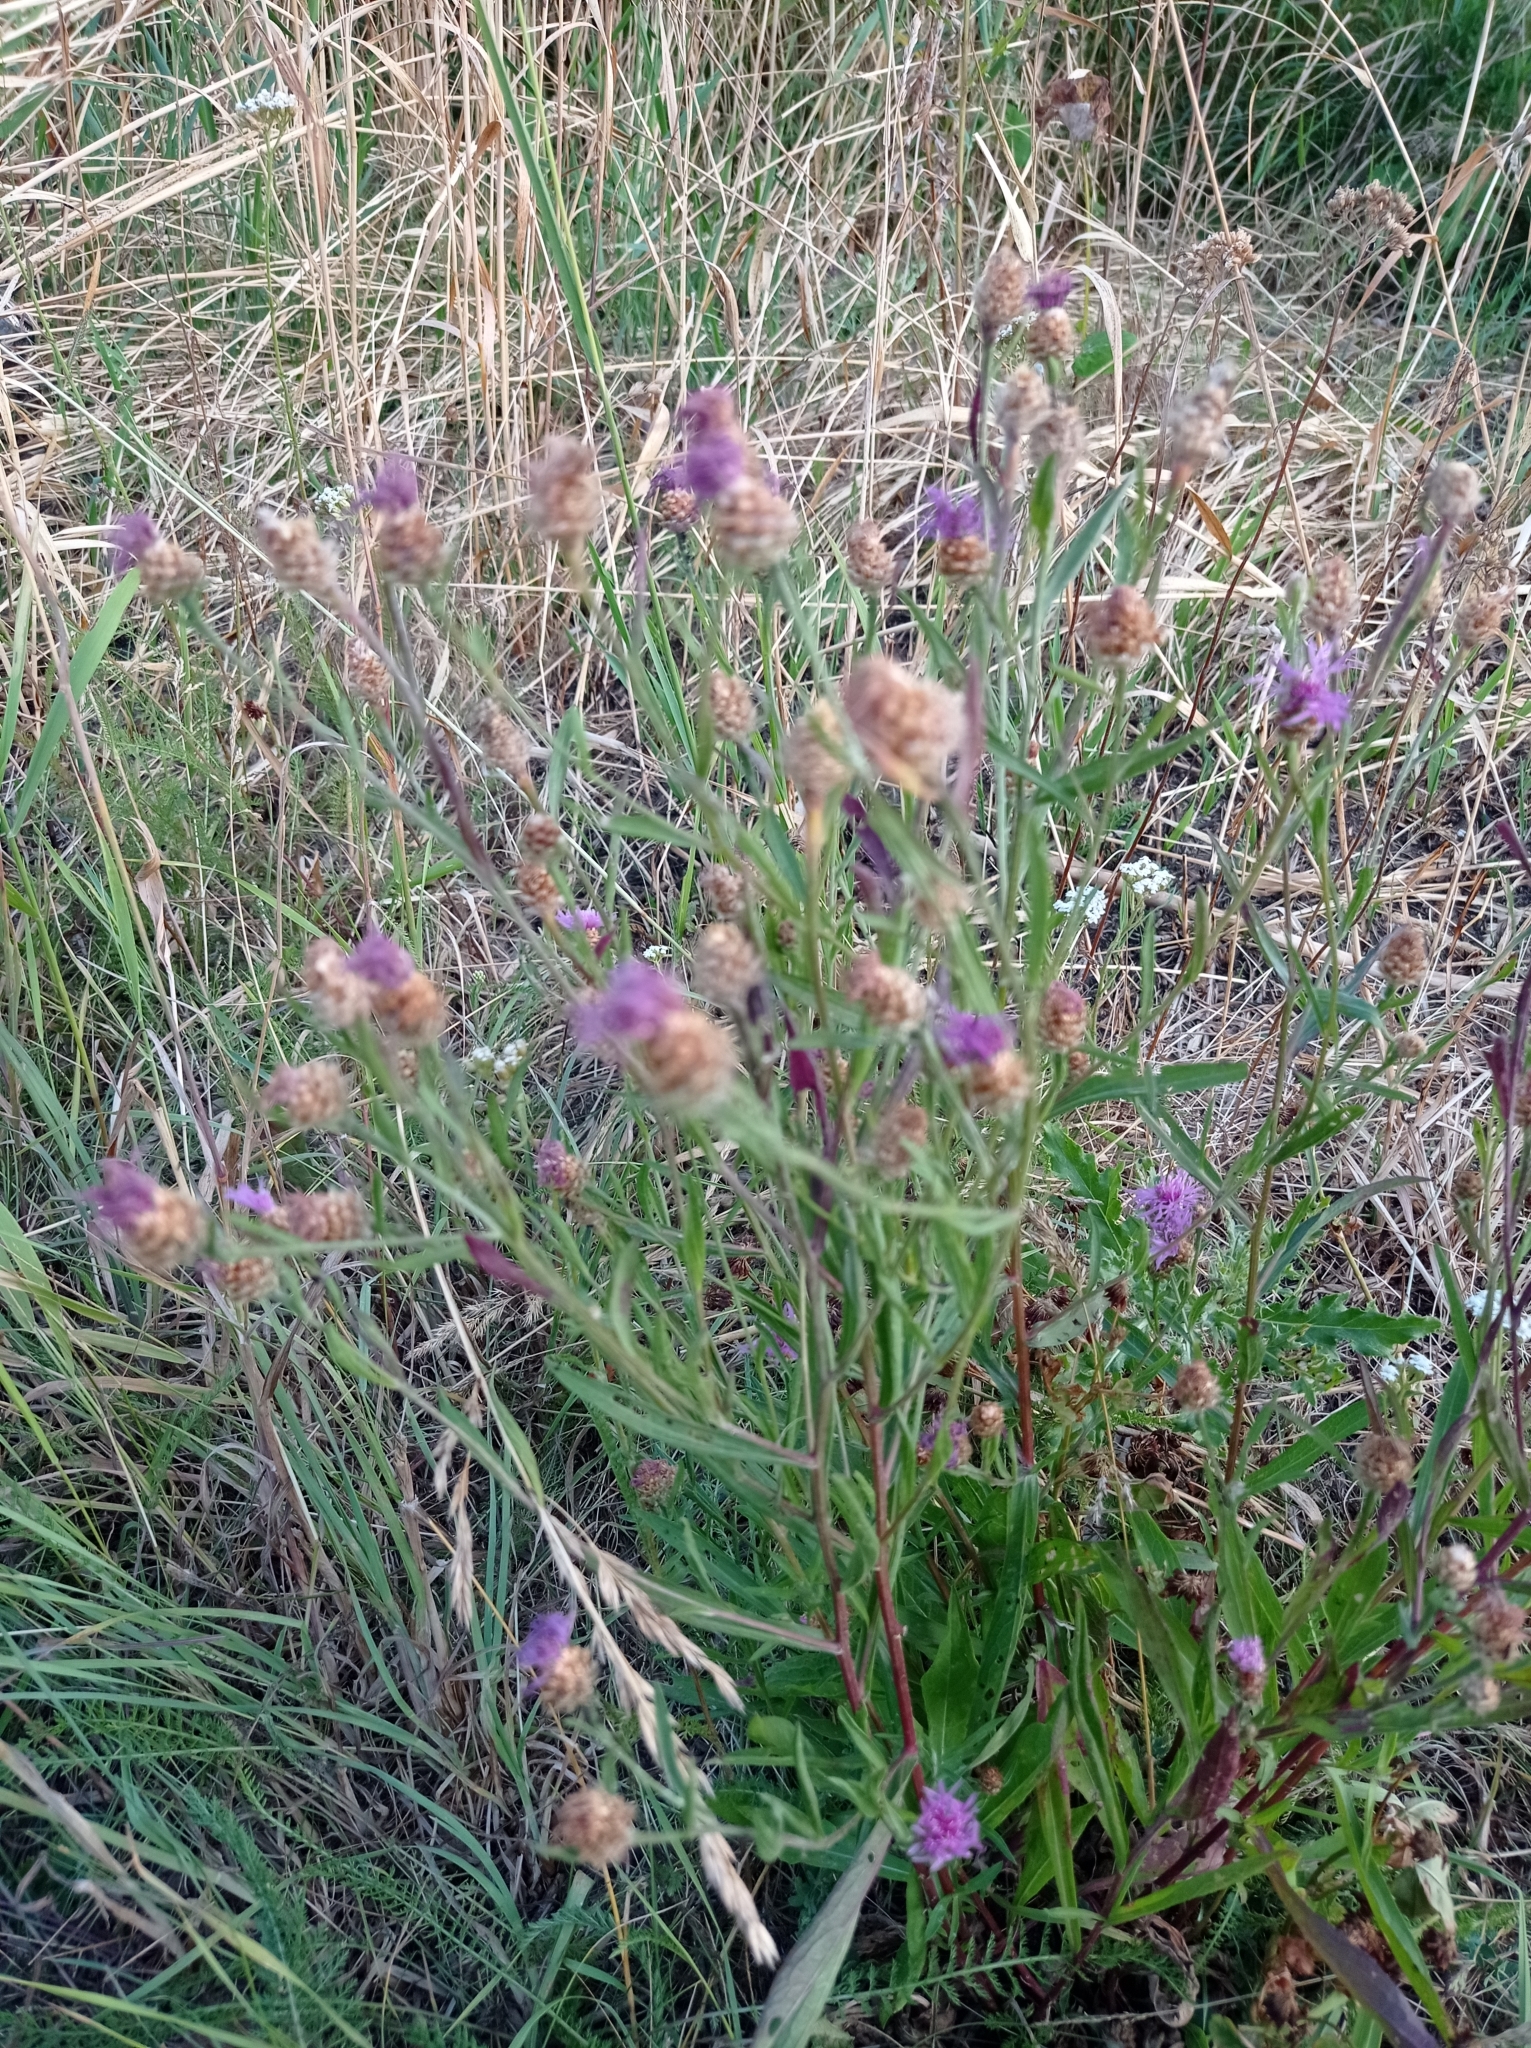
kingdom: Plantae
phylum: Tracheophyta
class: Magnoliopsida
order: Asterales
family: Asteraceae
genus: Centaurea
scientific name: Centaurea jacea
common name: Brown knapweed
